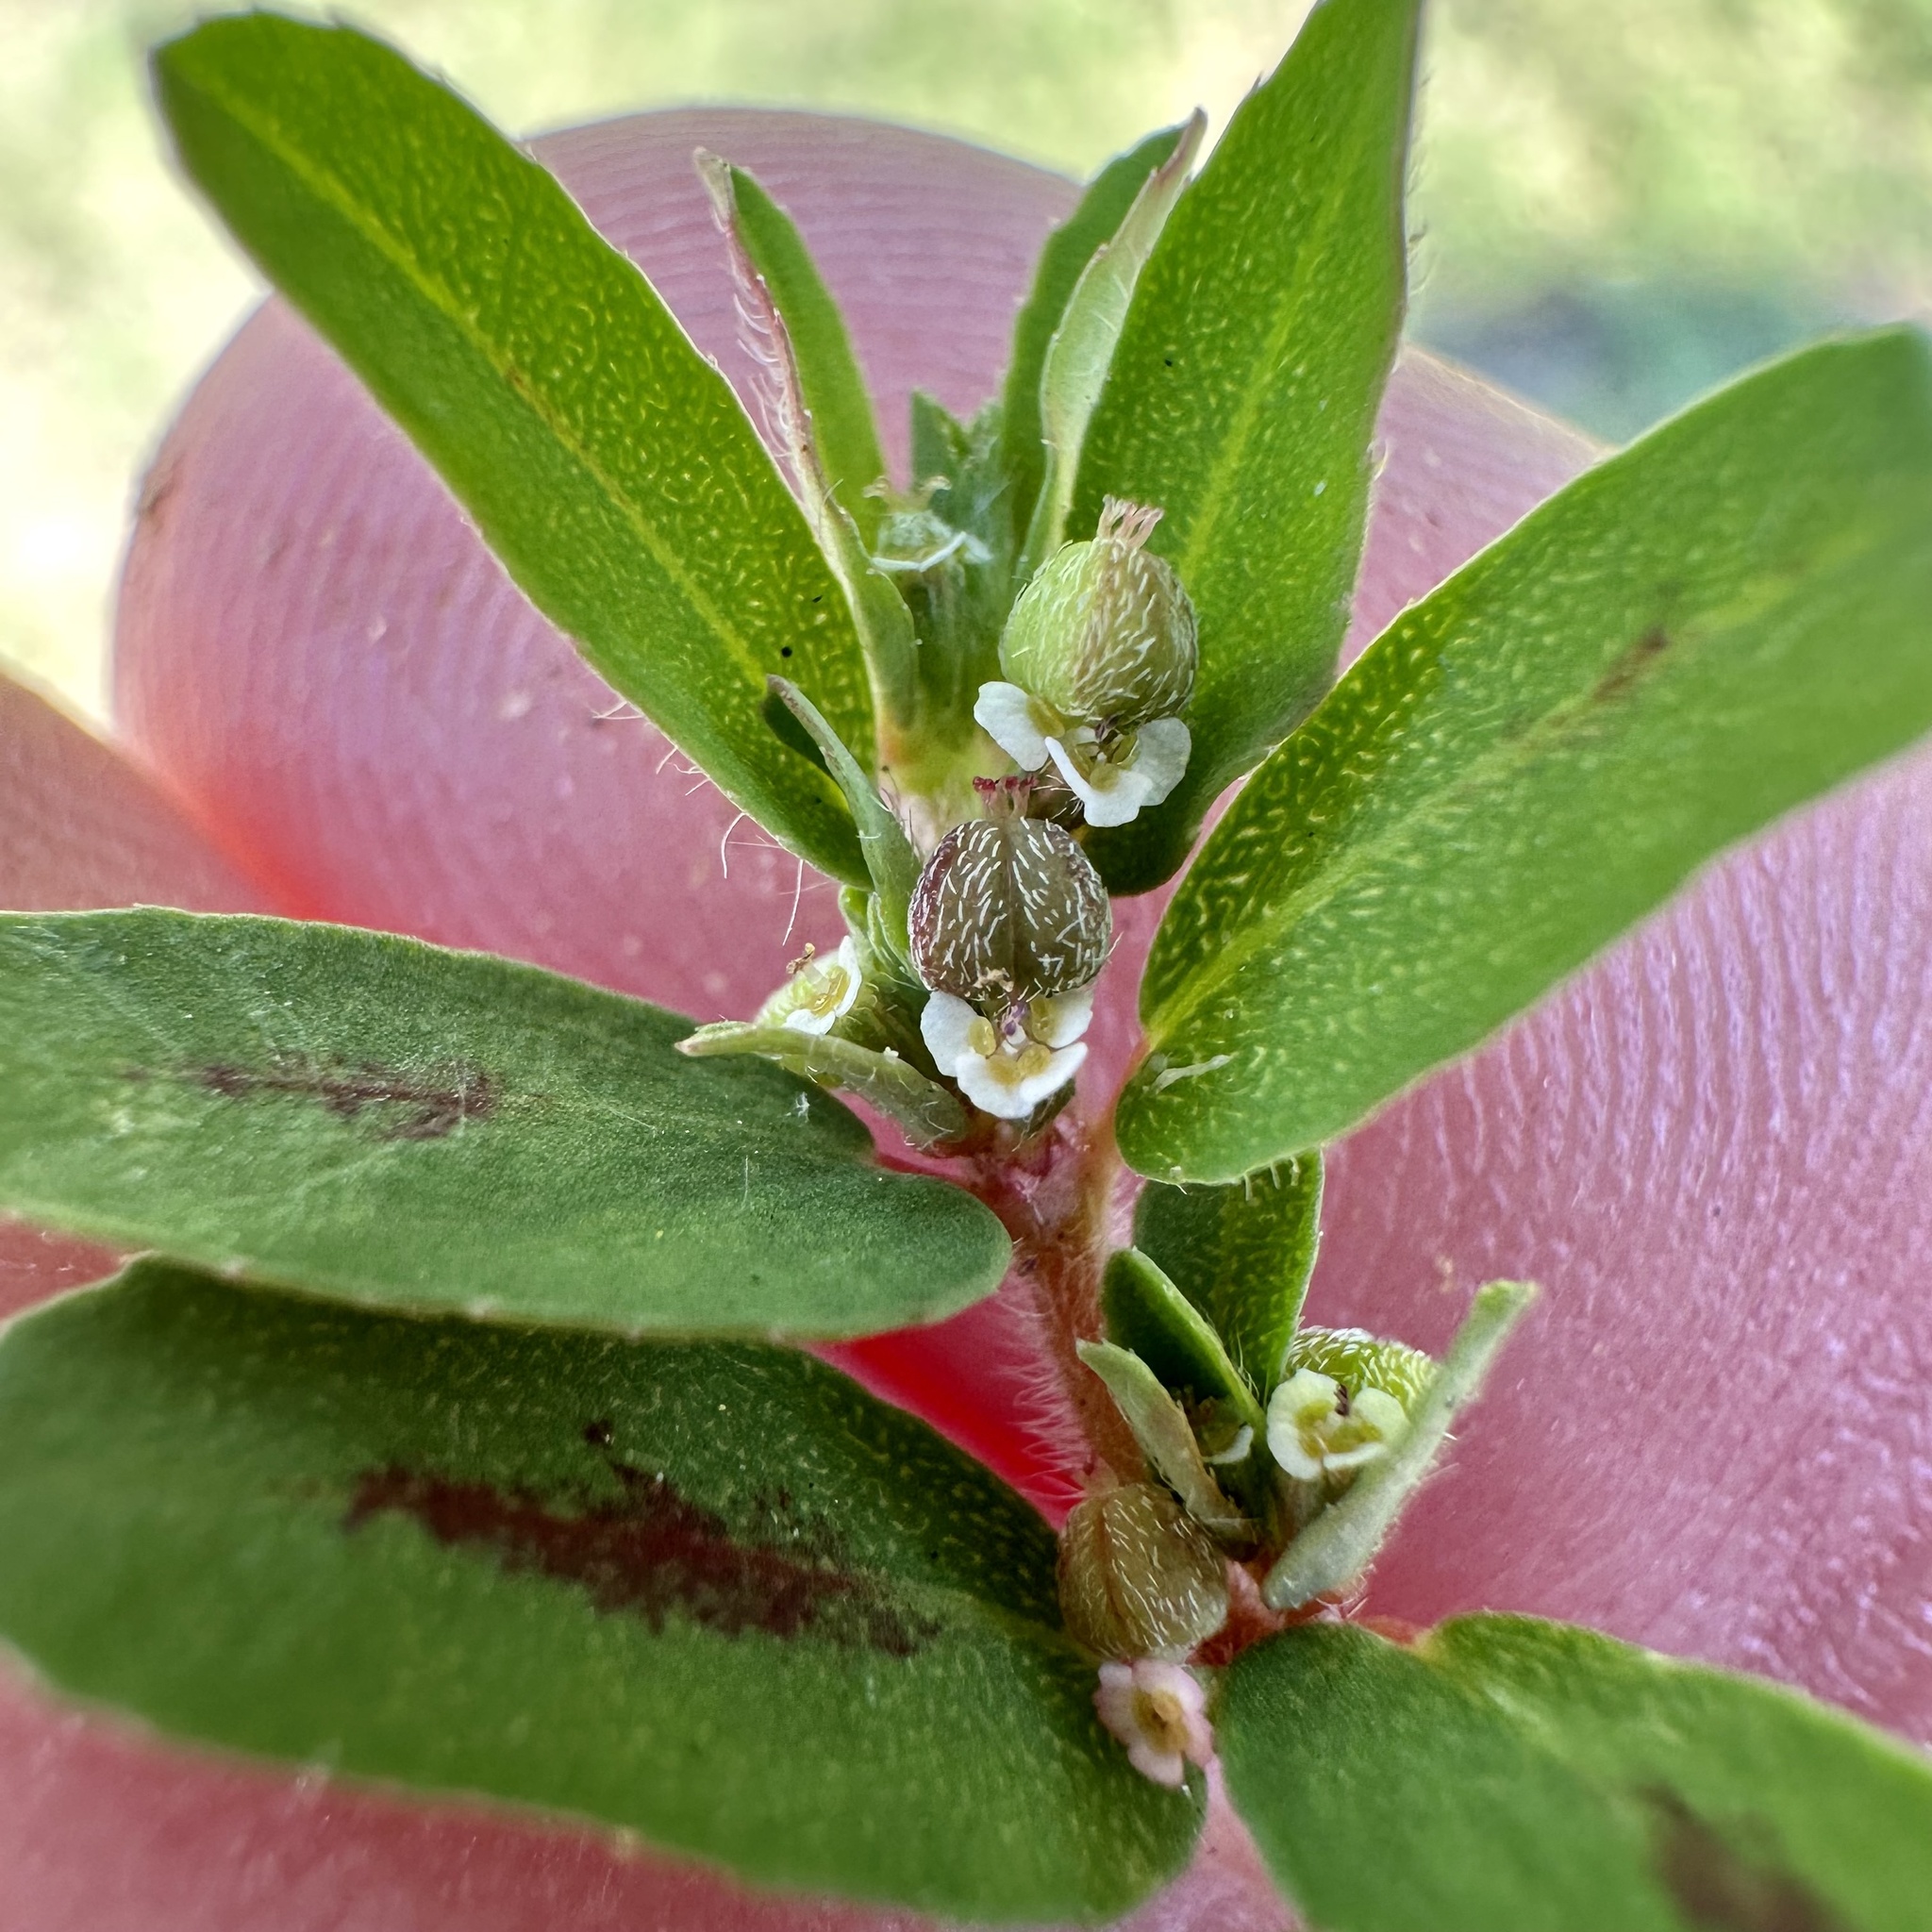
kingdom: Plantae
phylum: Tracheophyta
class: Magnoliopsida
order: Malpighiales
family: Euphorbiaceae
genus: Euphorbia
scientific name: Euphorbia maculata
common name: Spotted spurge
